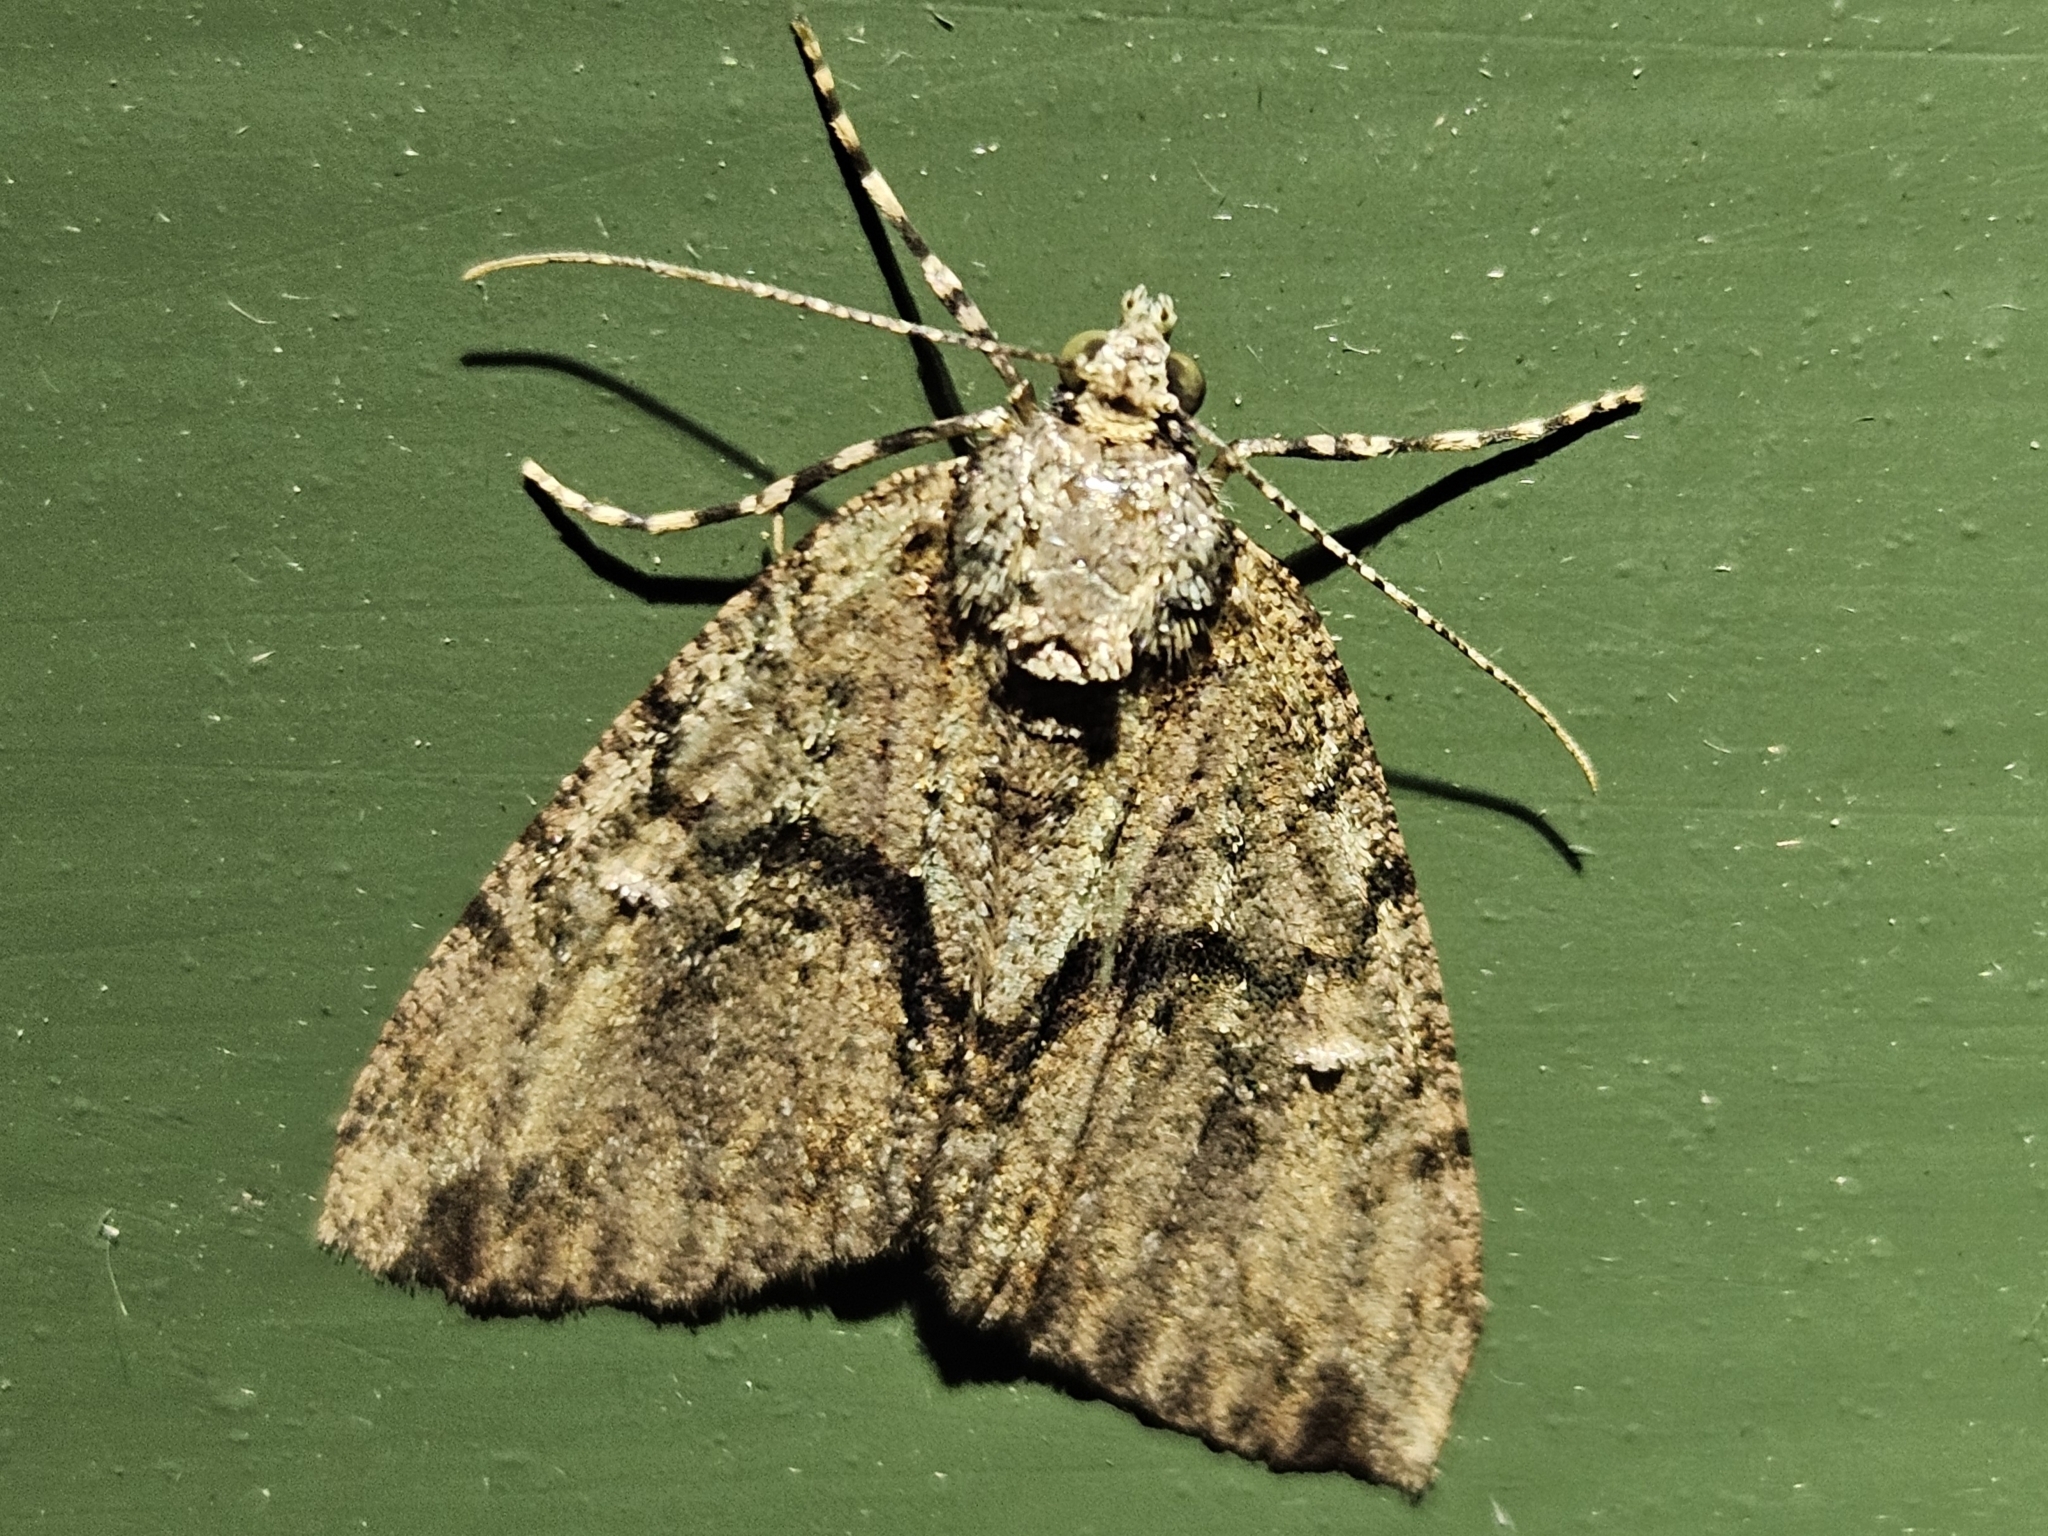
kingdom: Animalia
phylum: Arthropoda
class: Insecta
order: Lepidoptera
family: Geometridae
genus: Pseudocoremia
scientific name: Pseudocoremia suavis
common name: Common forest looper
